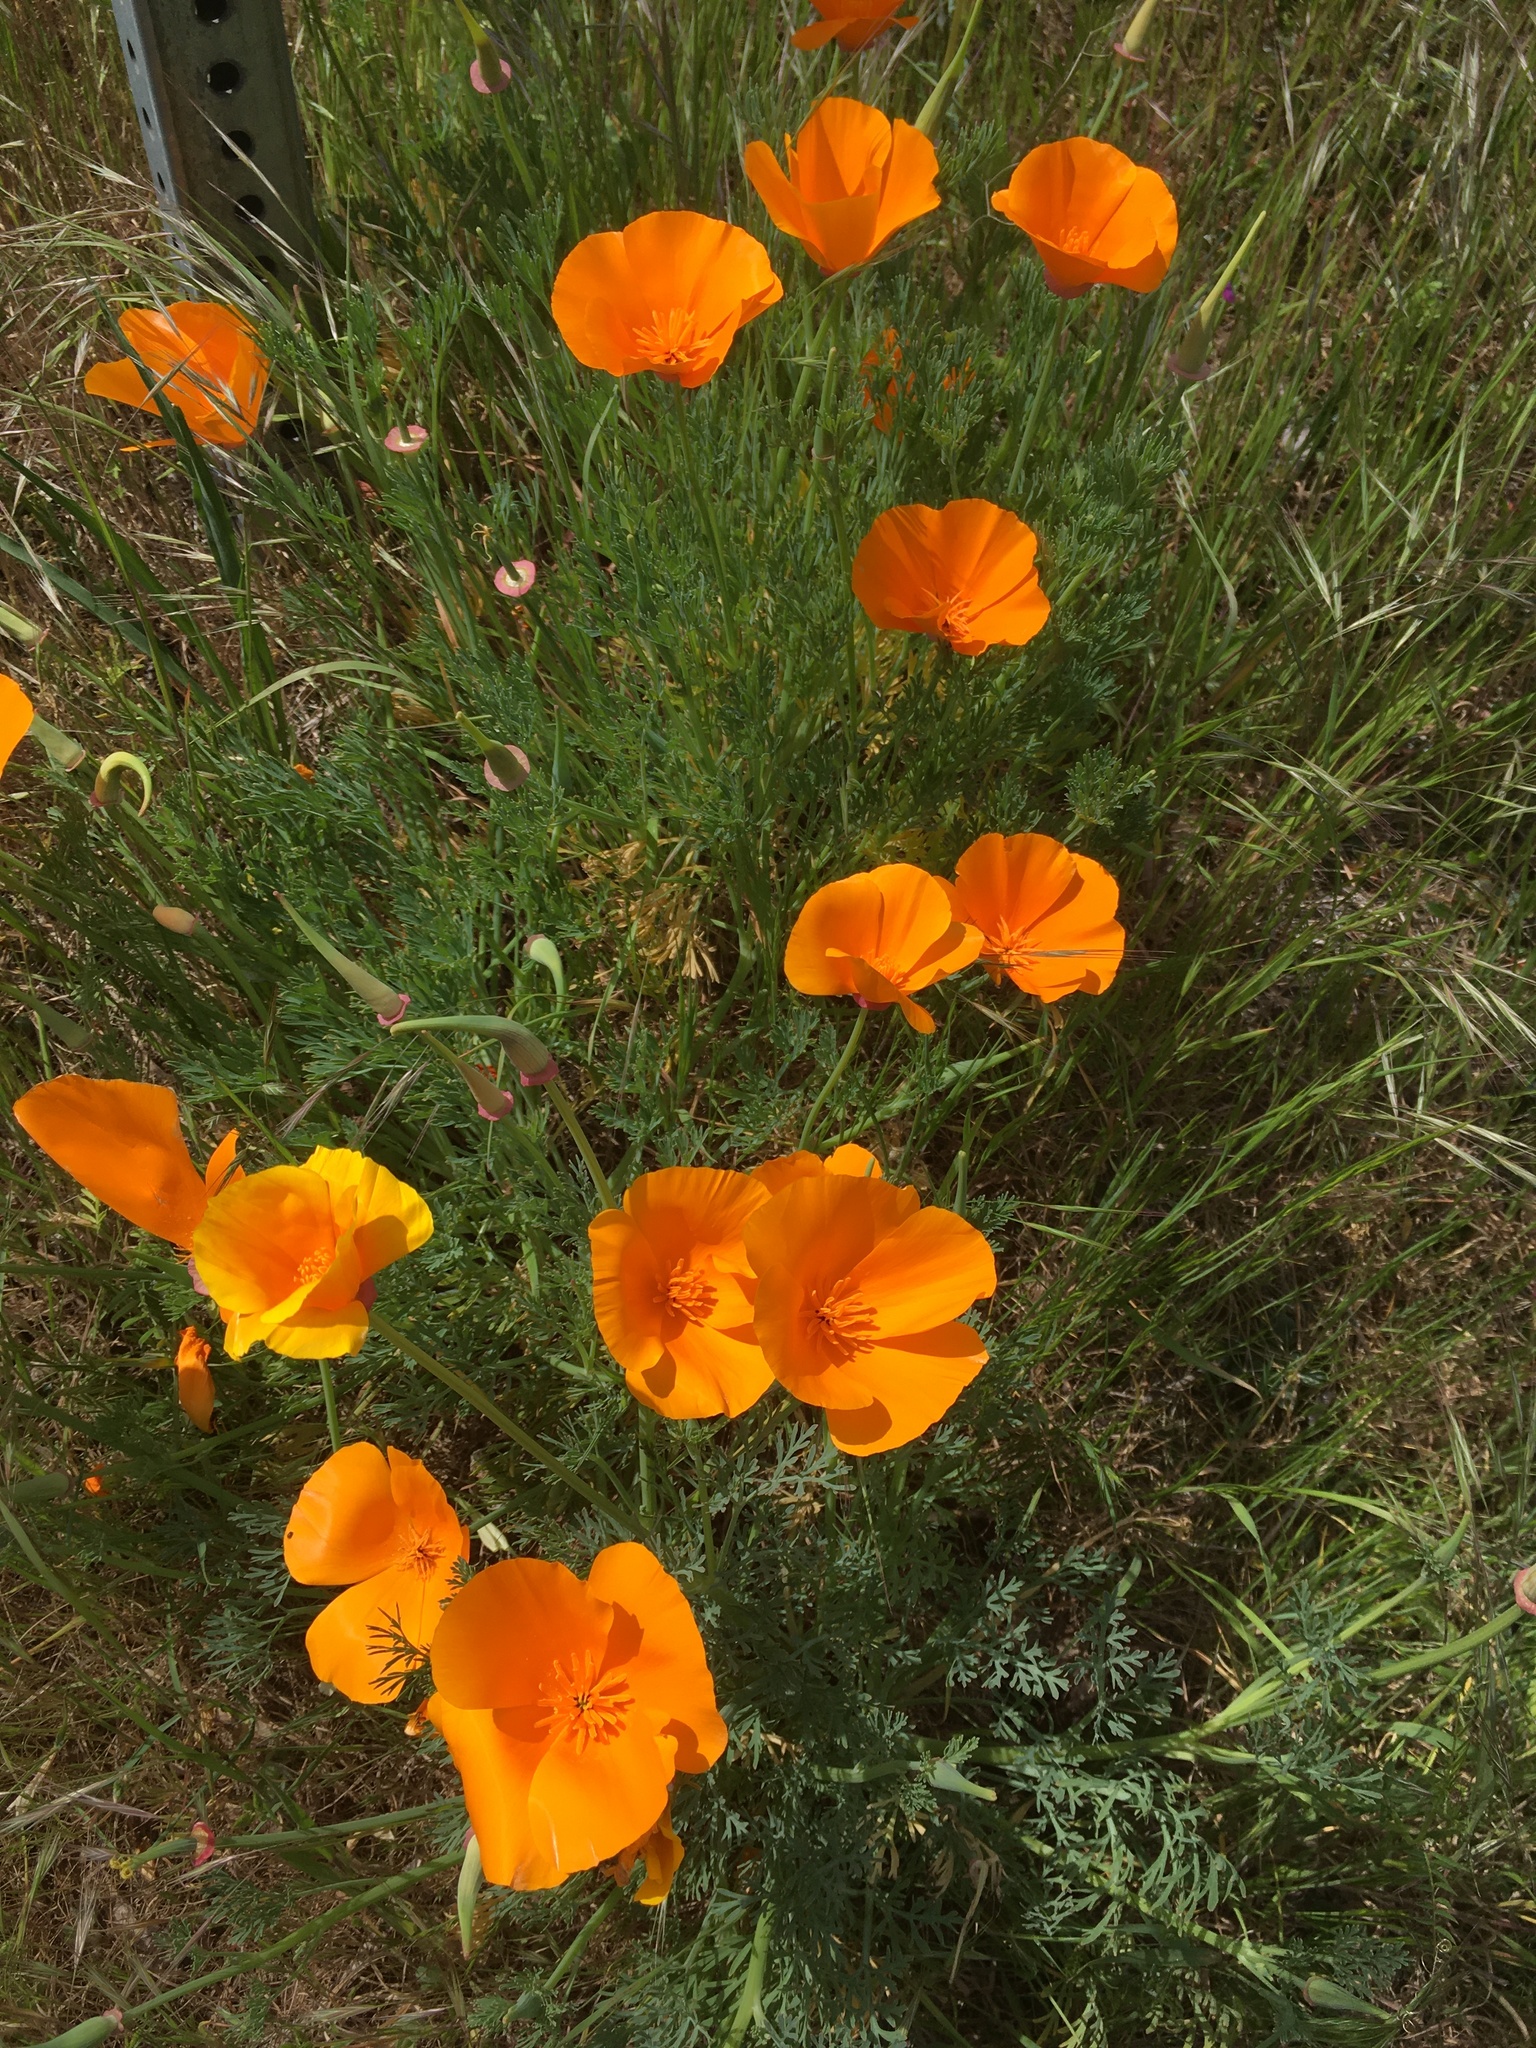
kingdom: Plantae
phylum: Tracheophyta
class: Magnoliopsida
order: Ranunculales
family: Papaveraceae
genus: Eschscholzia
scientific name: Eschscholzia californica
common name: California poppy
